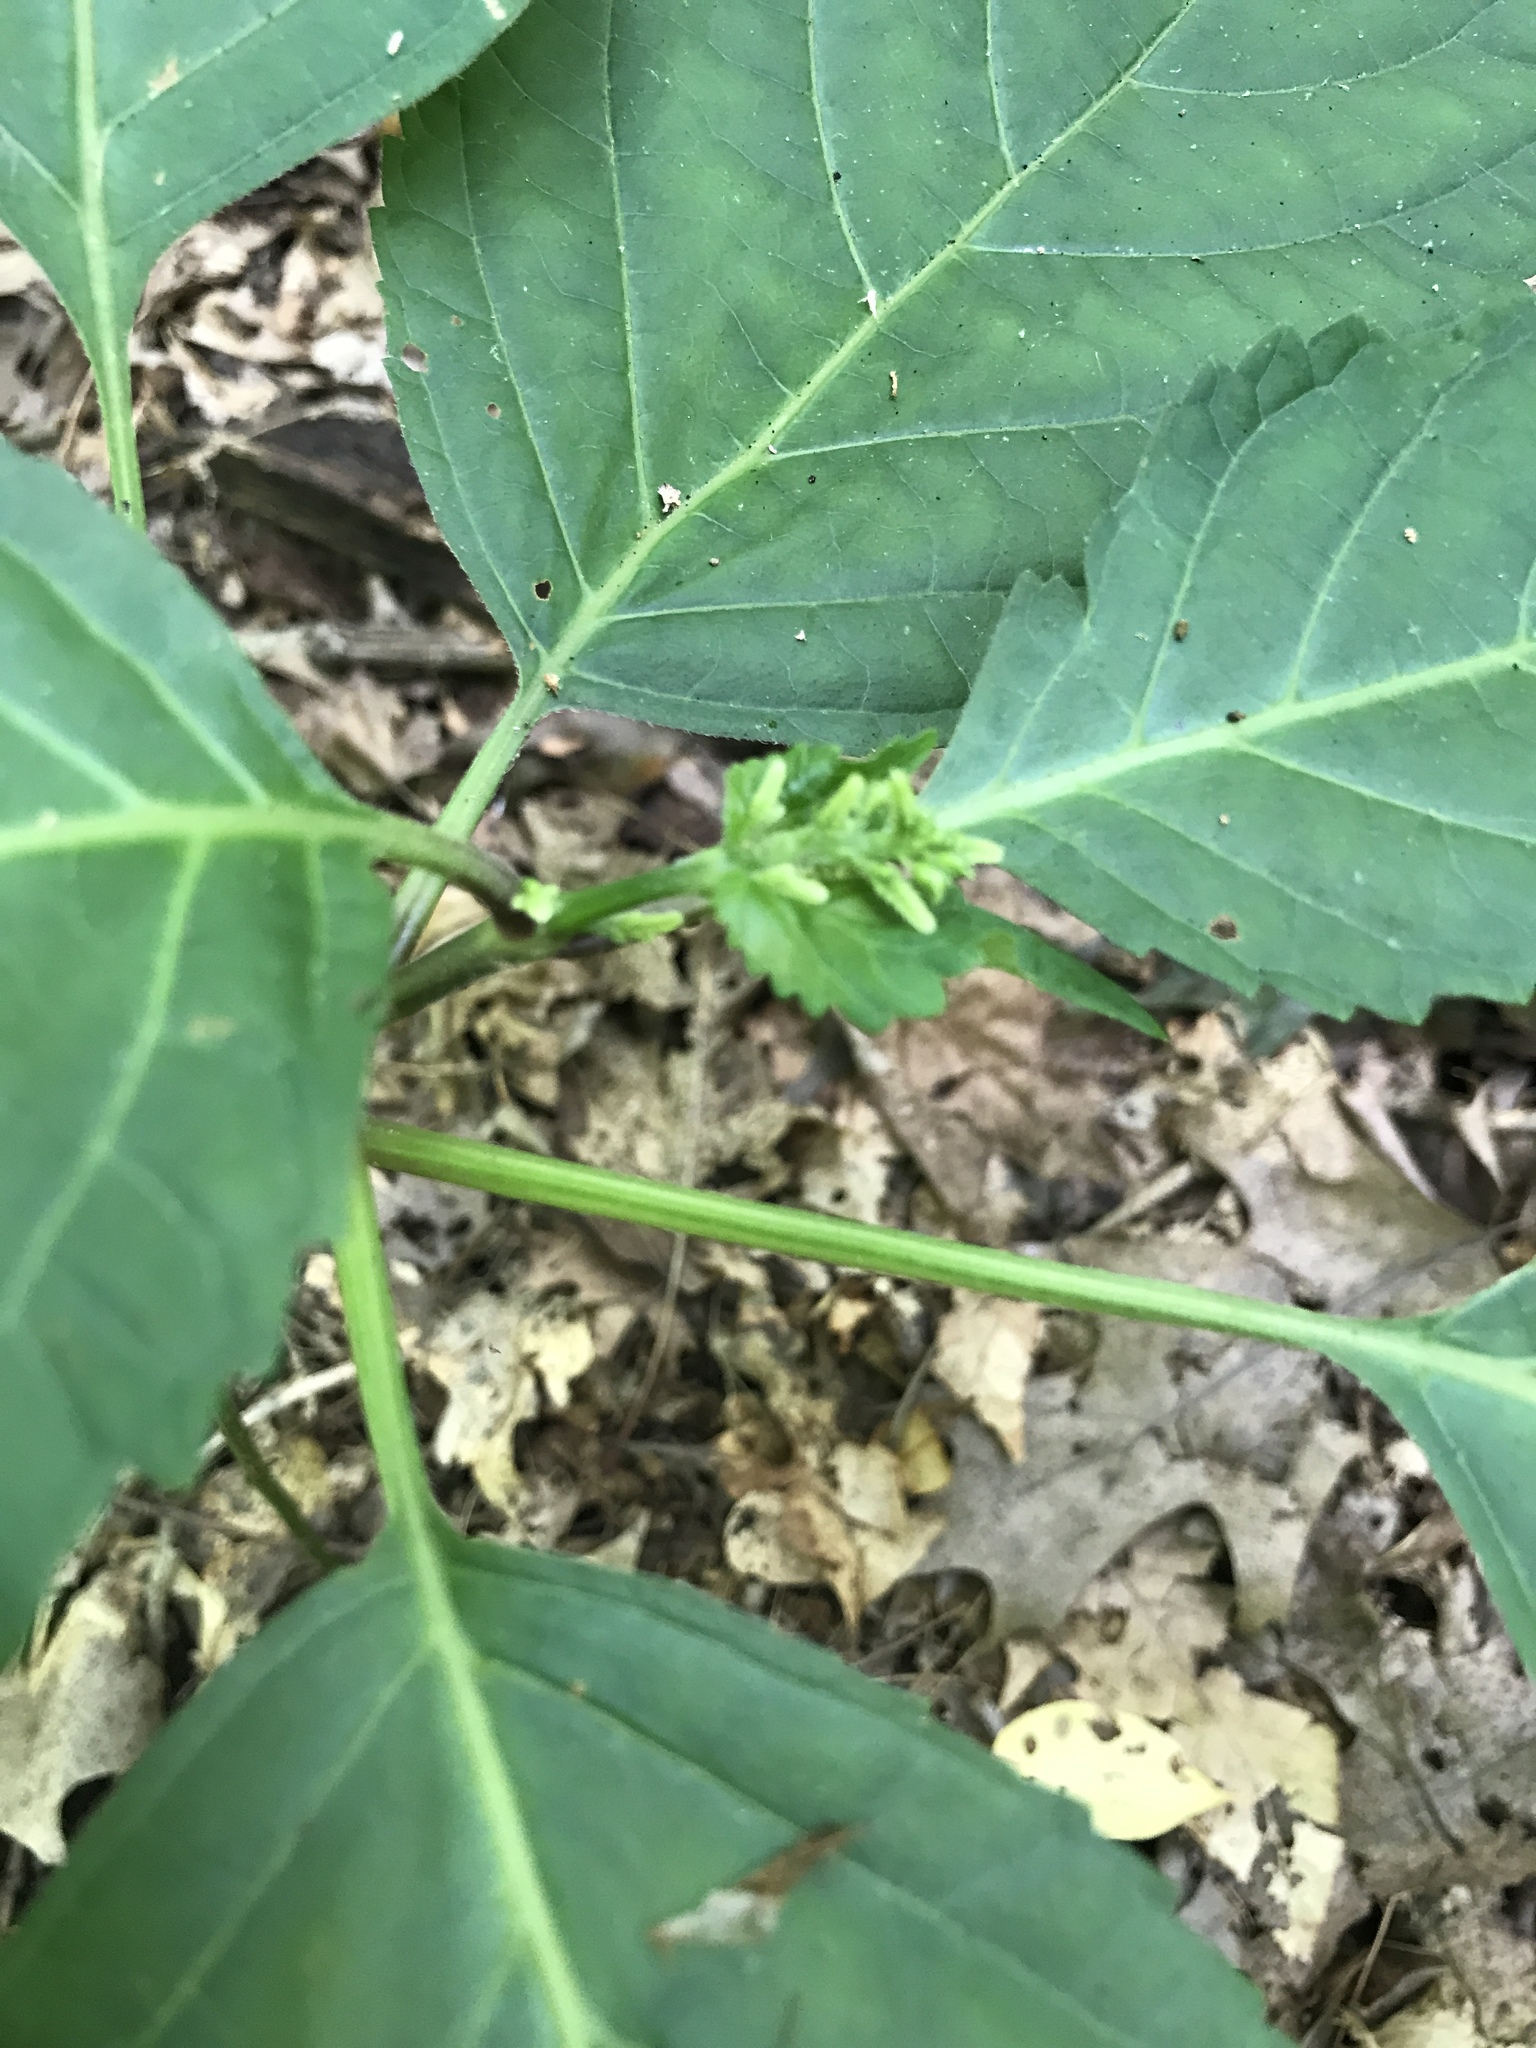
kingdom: Plantae
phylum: Tracheophyta
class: Magnoliopsida
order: Lamiales
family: Lamiaceae
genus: Collinsonia
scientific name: Collinsonia canadensis
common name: Northern horsebalm
